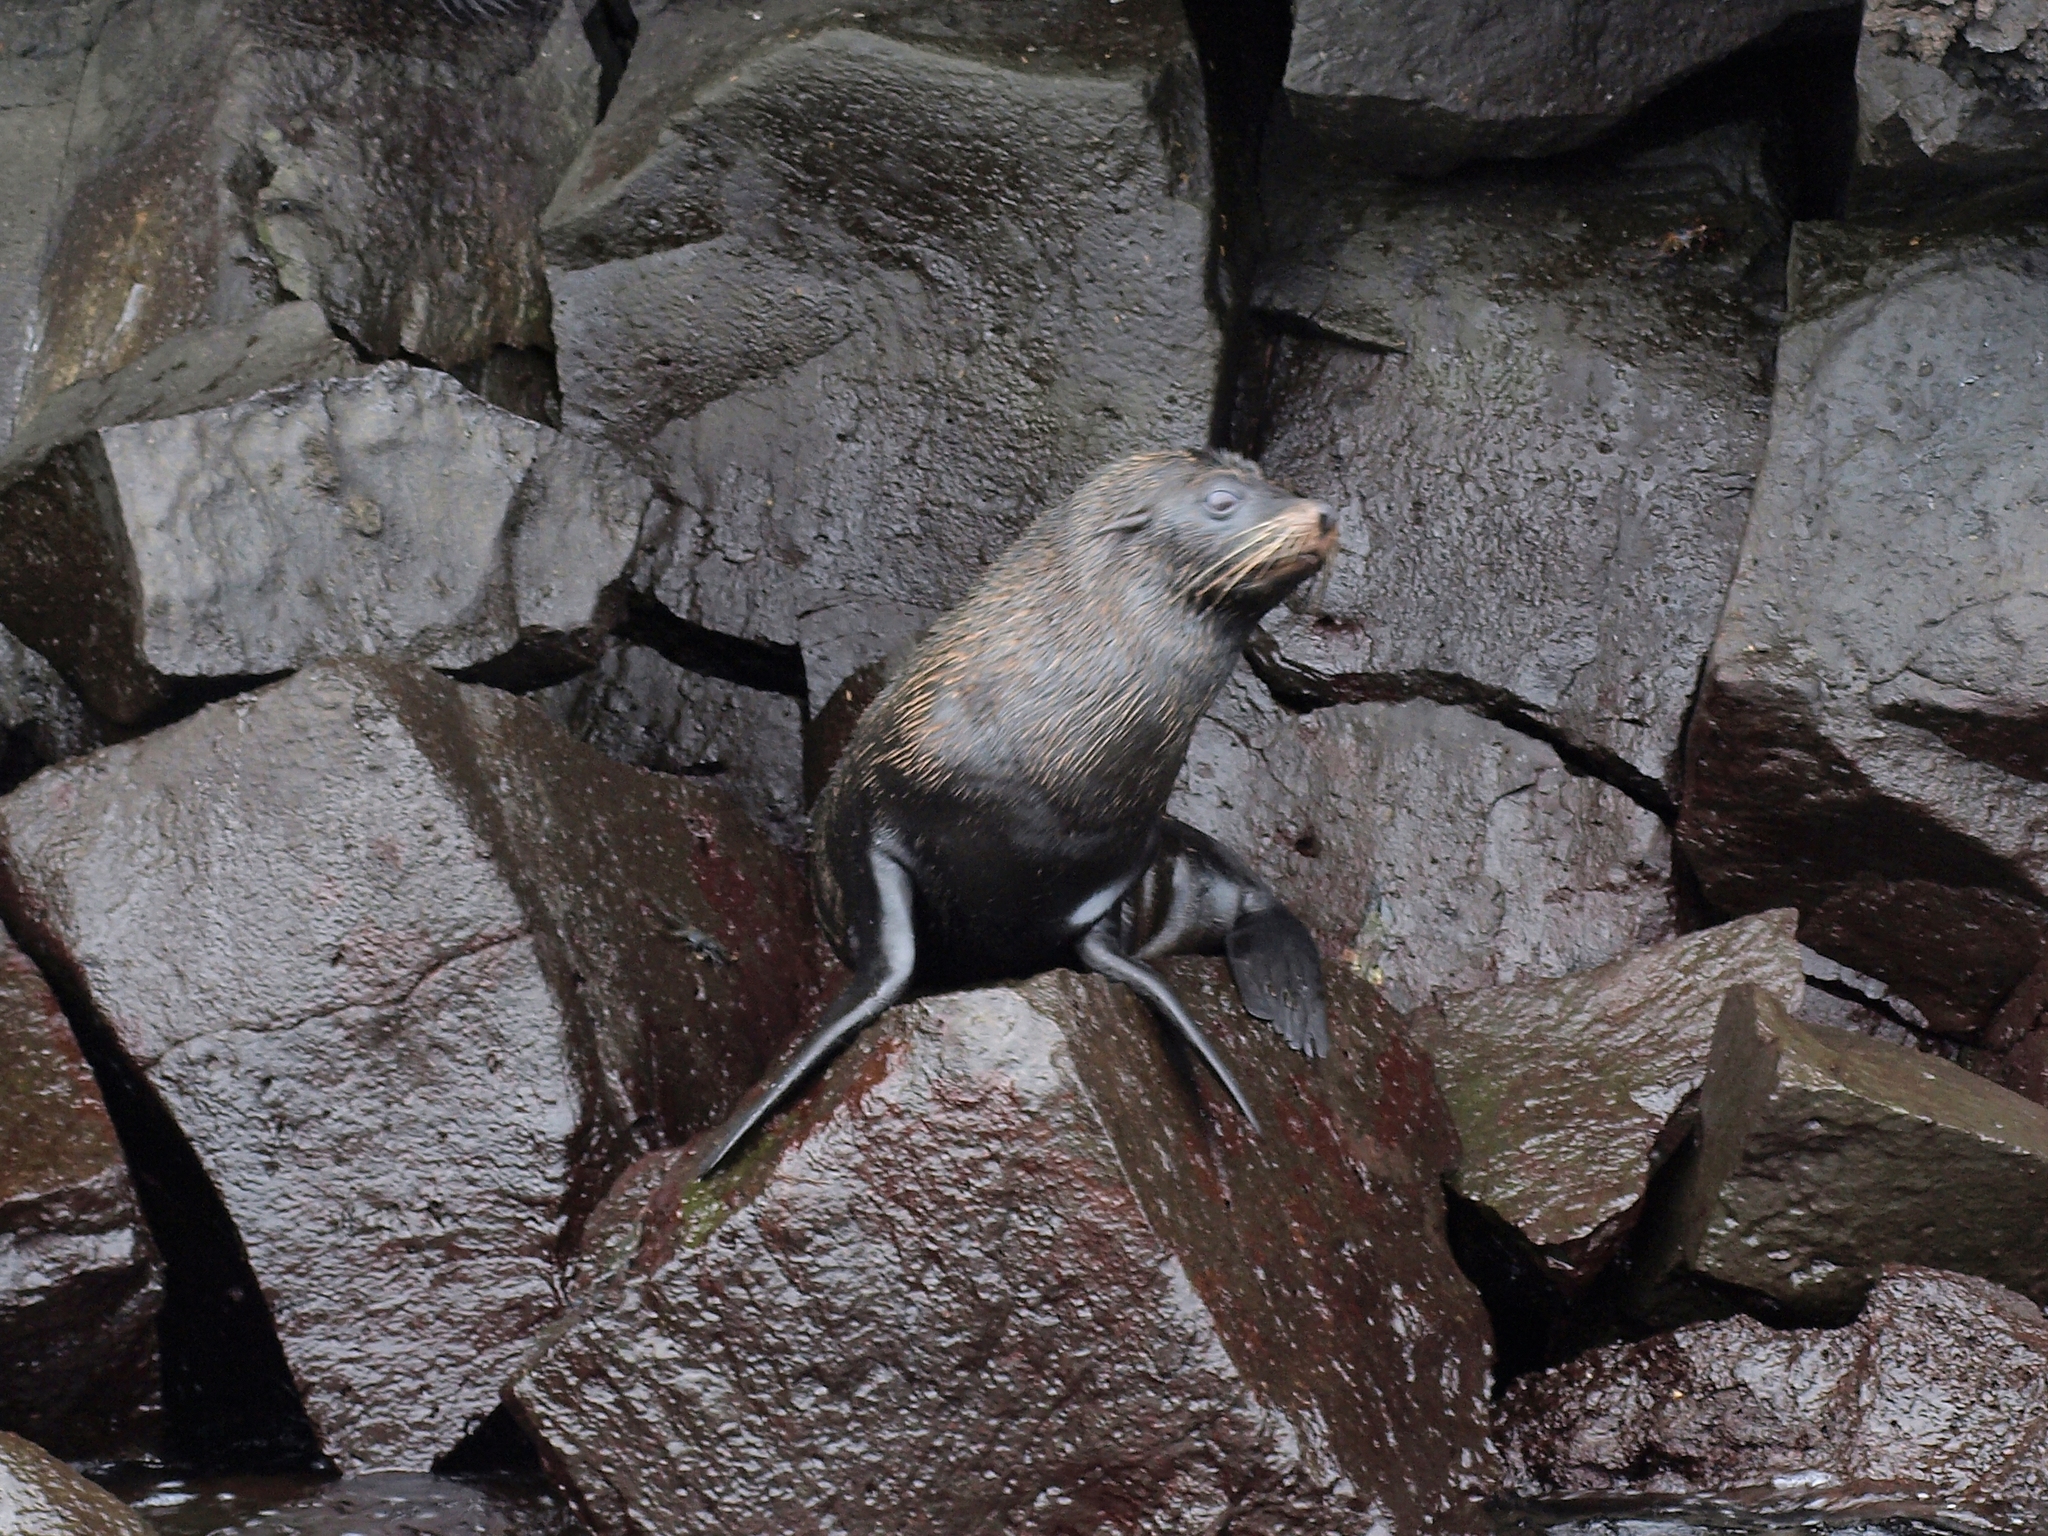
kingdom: Animalia
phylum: Chordata
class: Mammalia
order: Carnivora
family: Otariidae
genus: Arctocephalus
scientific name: Arctocephalus galapagoensis
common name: Galapagos fur seal
